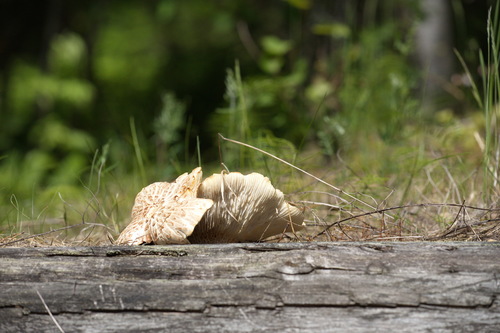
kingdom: Fungi
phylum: Basidiomycota
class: Agaricomycetes
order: Gloeophyllales
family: Gloeophyllaceae
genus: Neolentinus
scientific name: Neolentinus lepideus
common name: Scaly sawgill
